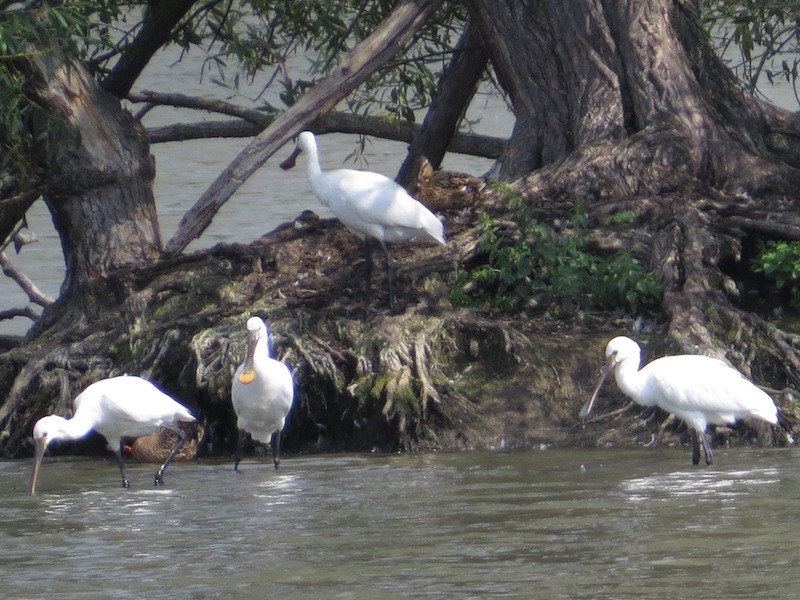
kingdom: Animalia
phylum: Chordata
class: Aves
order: Pelecaniformes
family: Threskiornithidae
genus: Platalea
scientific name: Platalea leucorodia
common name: Eurasian spoonbill
